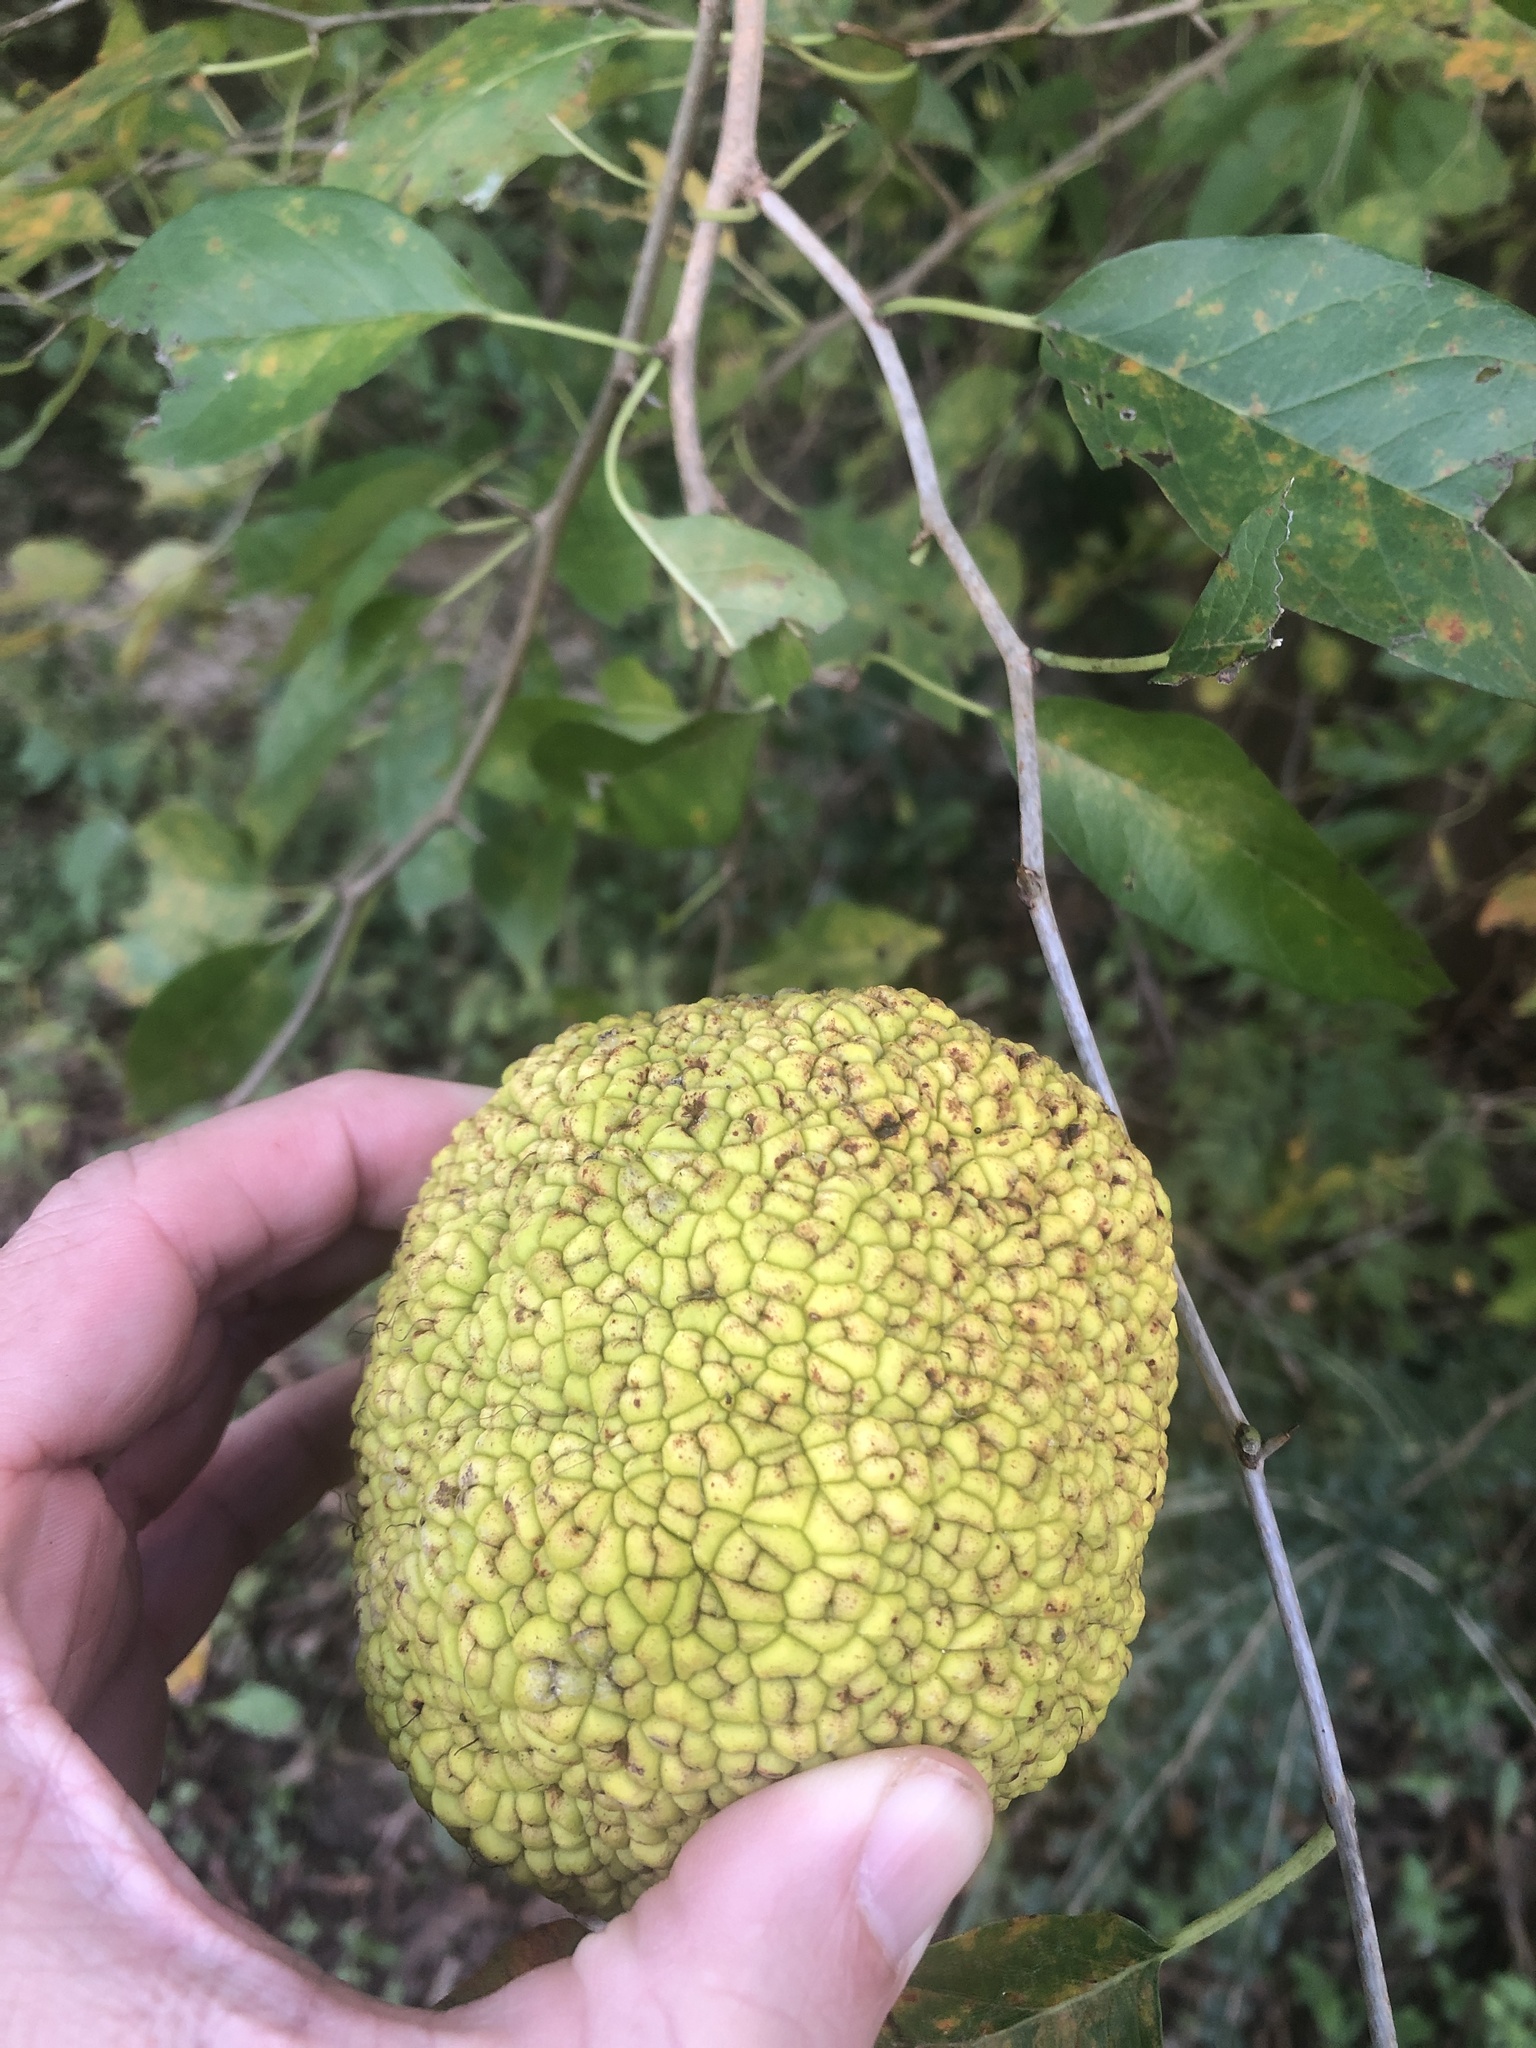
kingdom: Plantae
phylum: Tracheophyta
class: Magnoliopsida
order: Rosales
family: Moraceae
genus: Maclura
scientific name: Maclura pomifera
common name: Osage-orange
